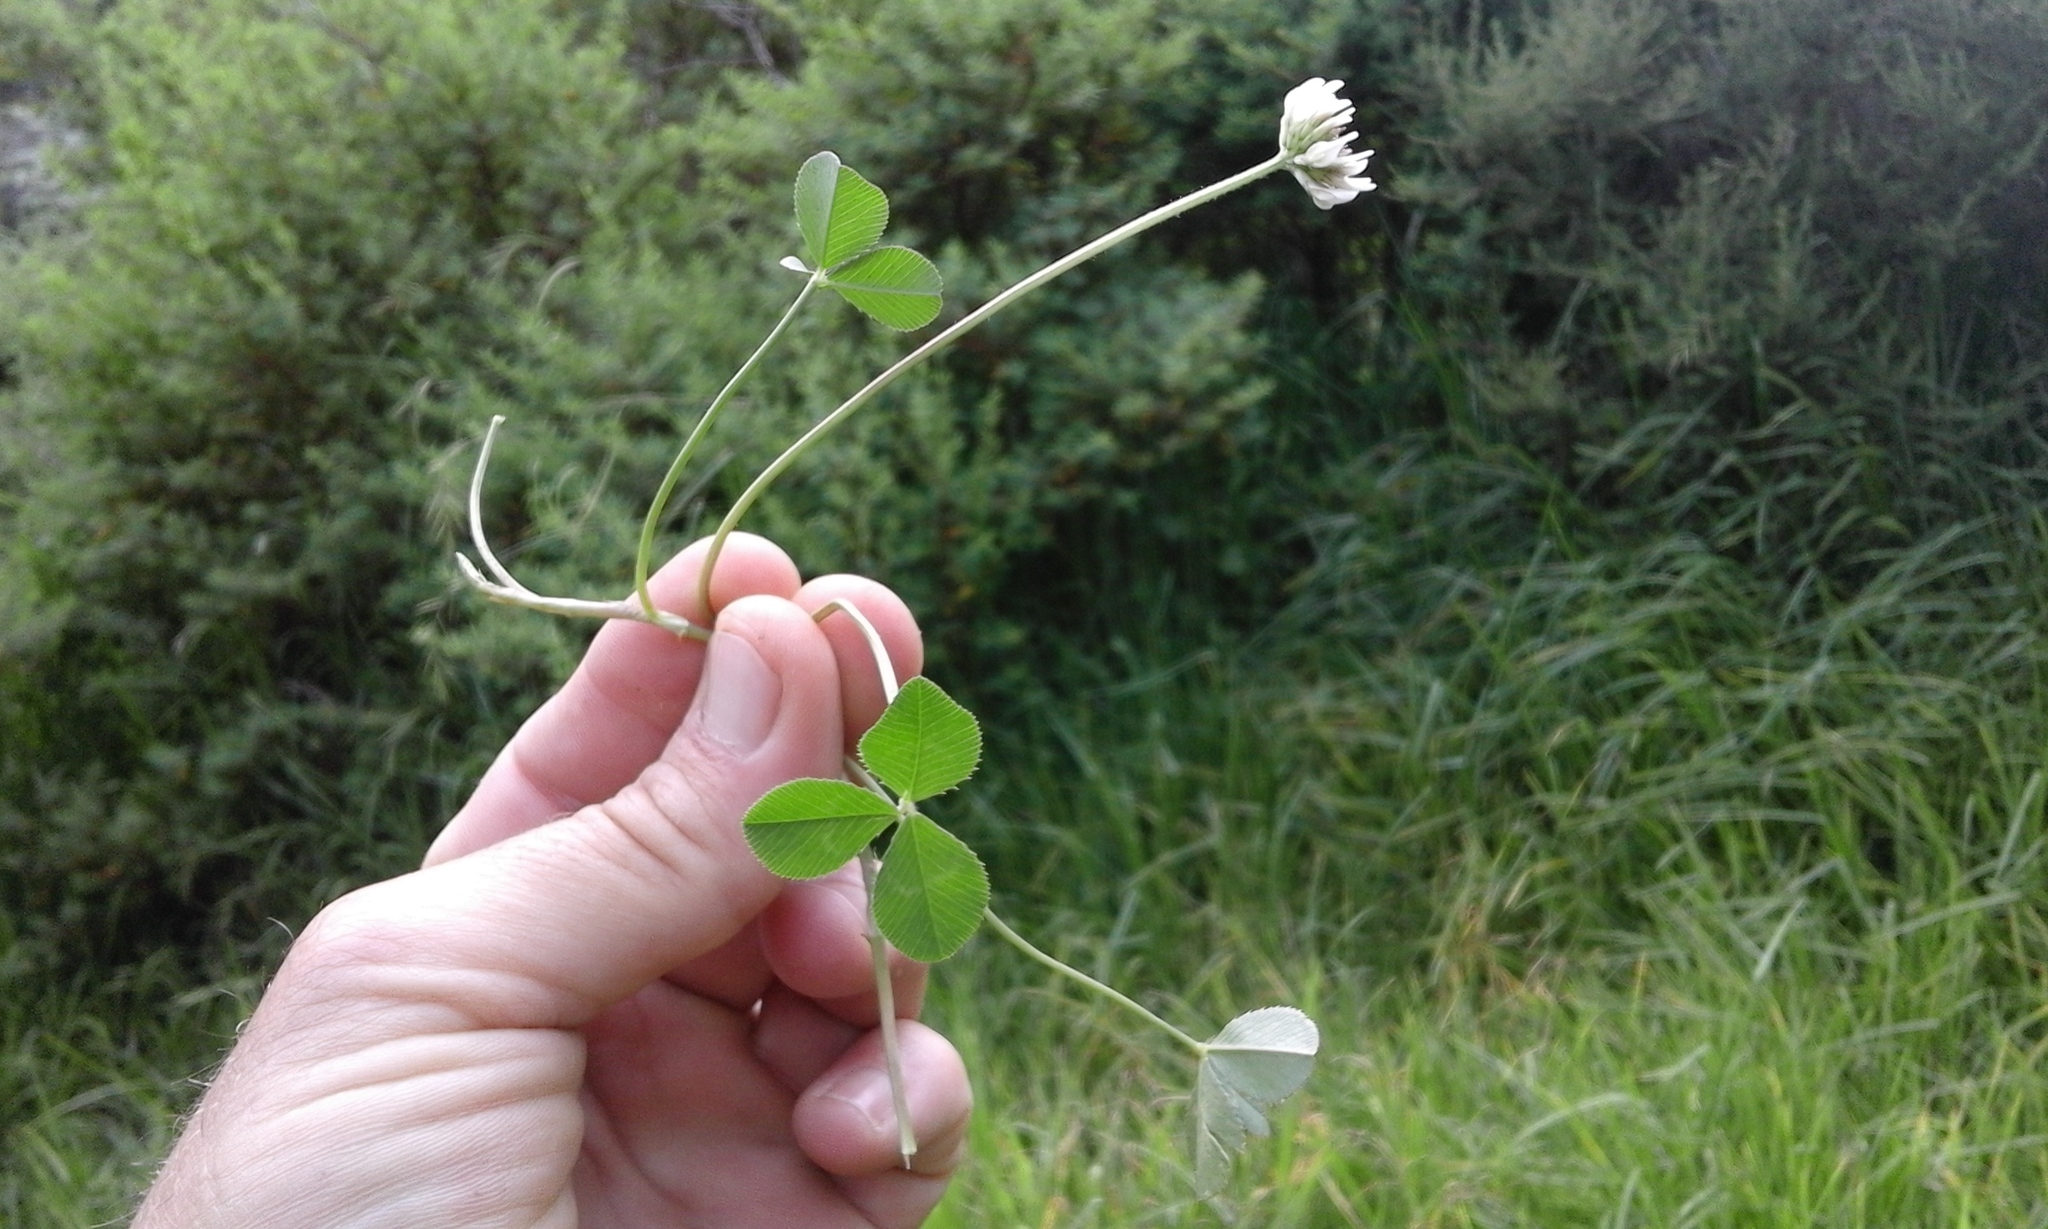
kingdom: Plantae
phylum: Tracheophyta
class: Magnoliopsida
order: Fabales
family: Fabaceae
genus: Trifolium
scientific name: Trifolium repens
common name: White clover
